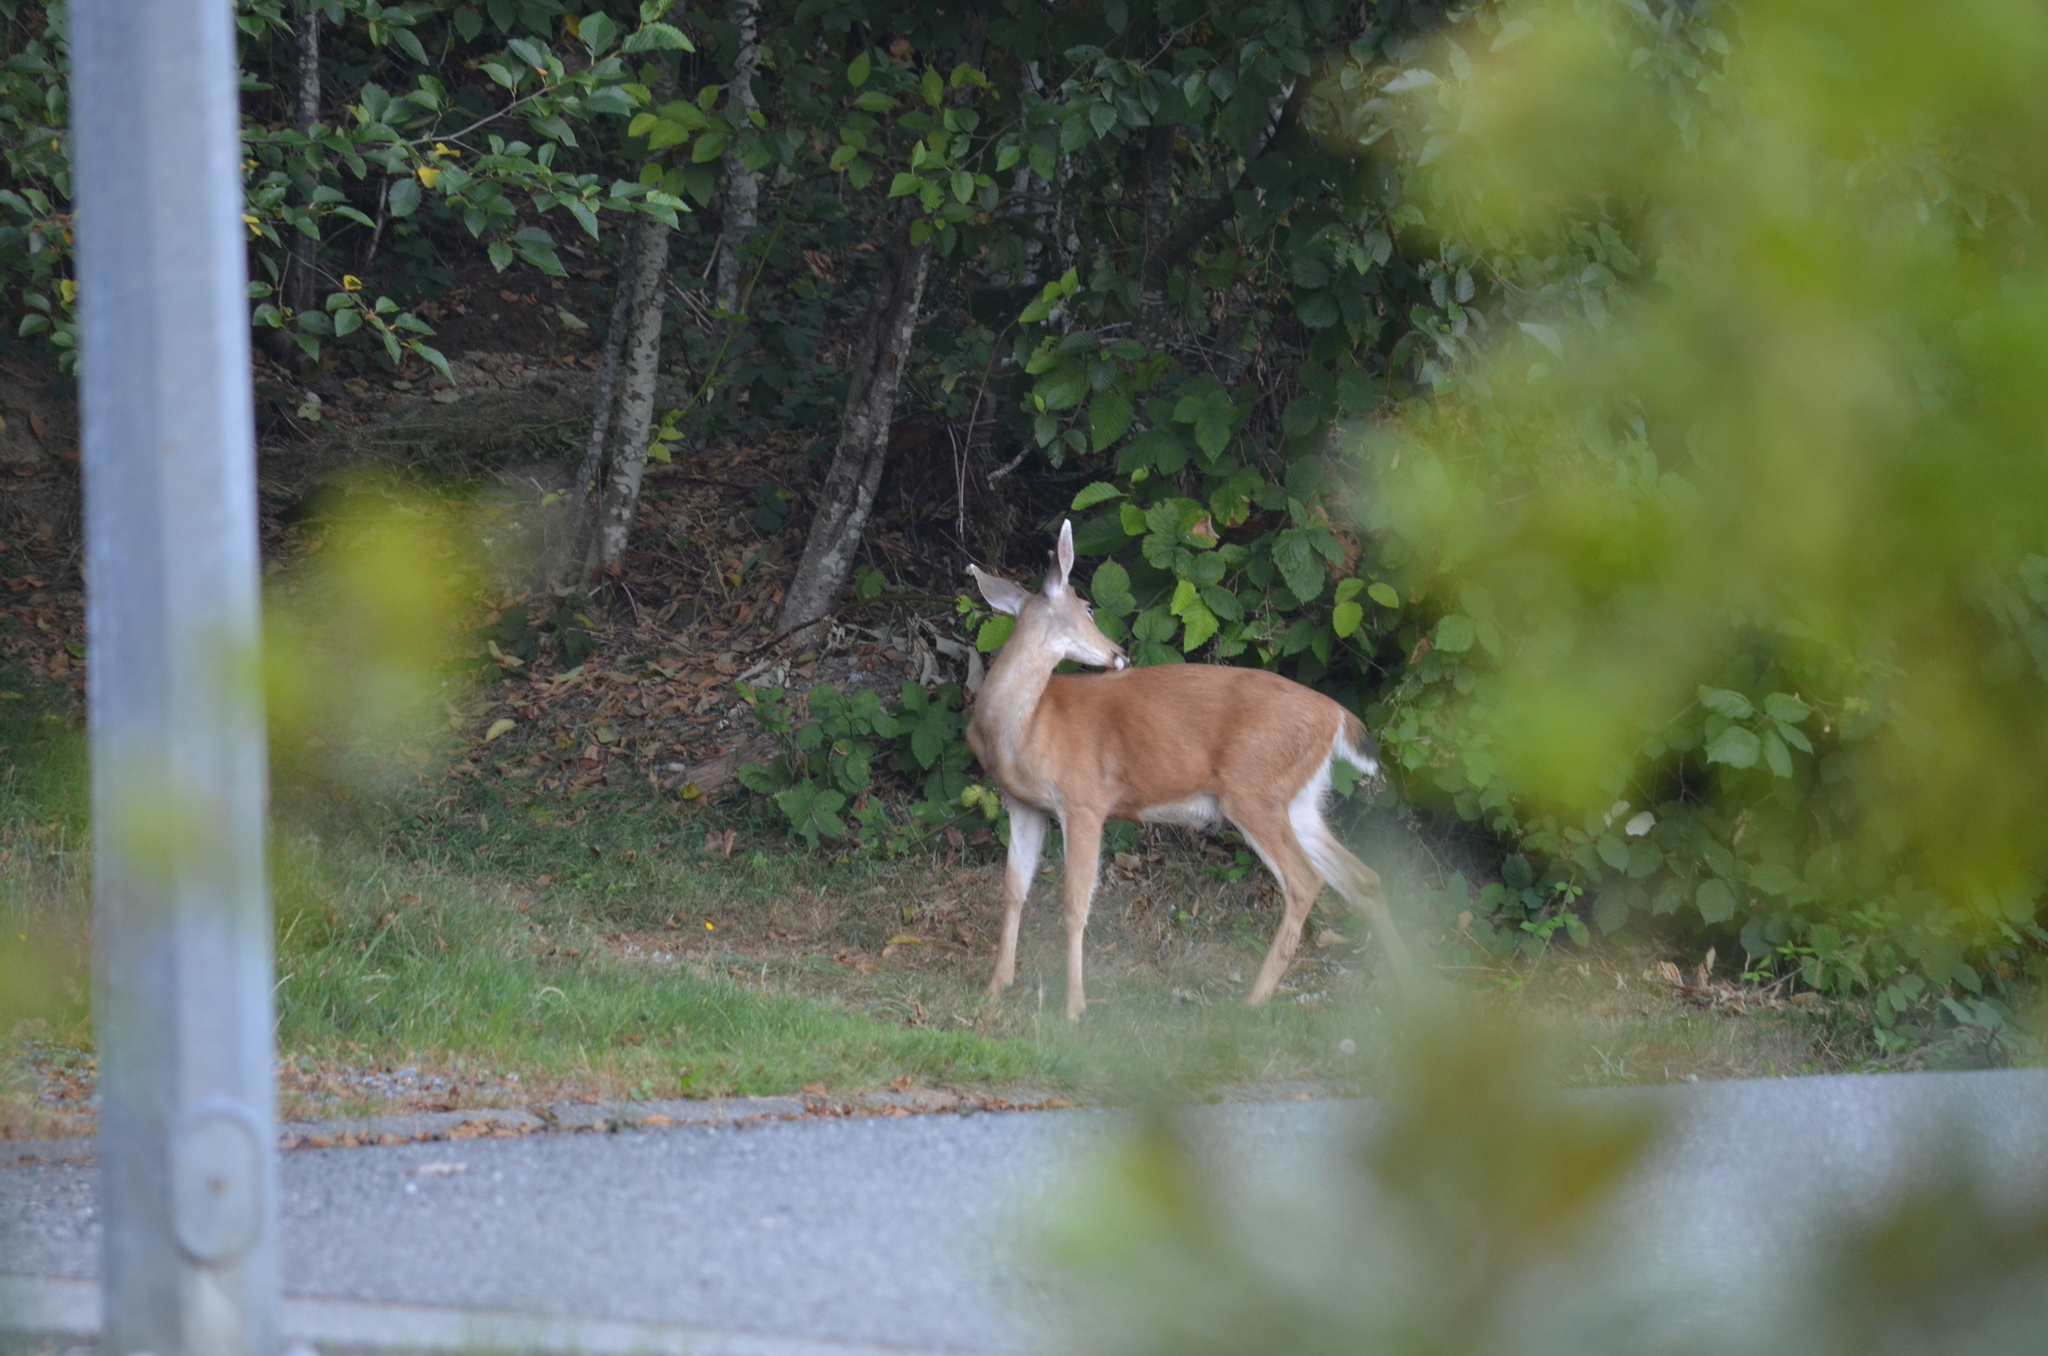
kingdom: Animalia
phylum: Chordata
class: Mammalia
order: Artiodactyla
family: Cervidae
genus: Odocoileus
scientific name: Odocoileus hemionus
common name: Mule deer
